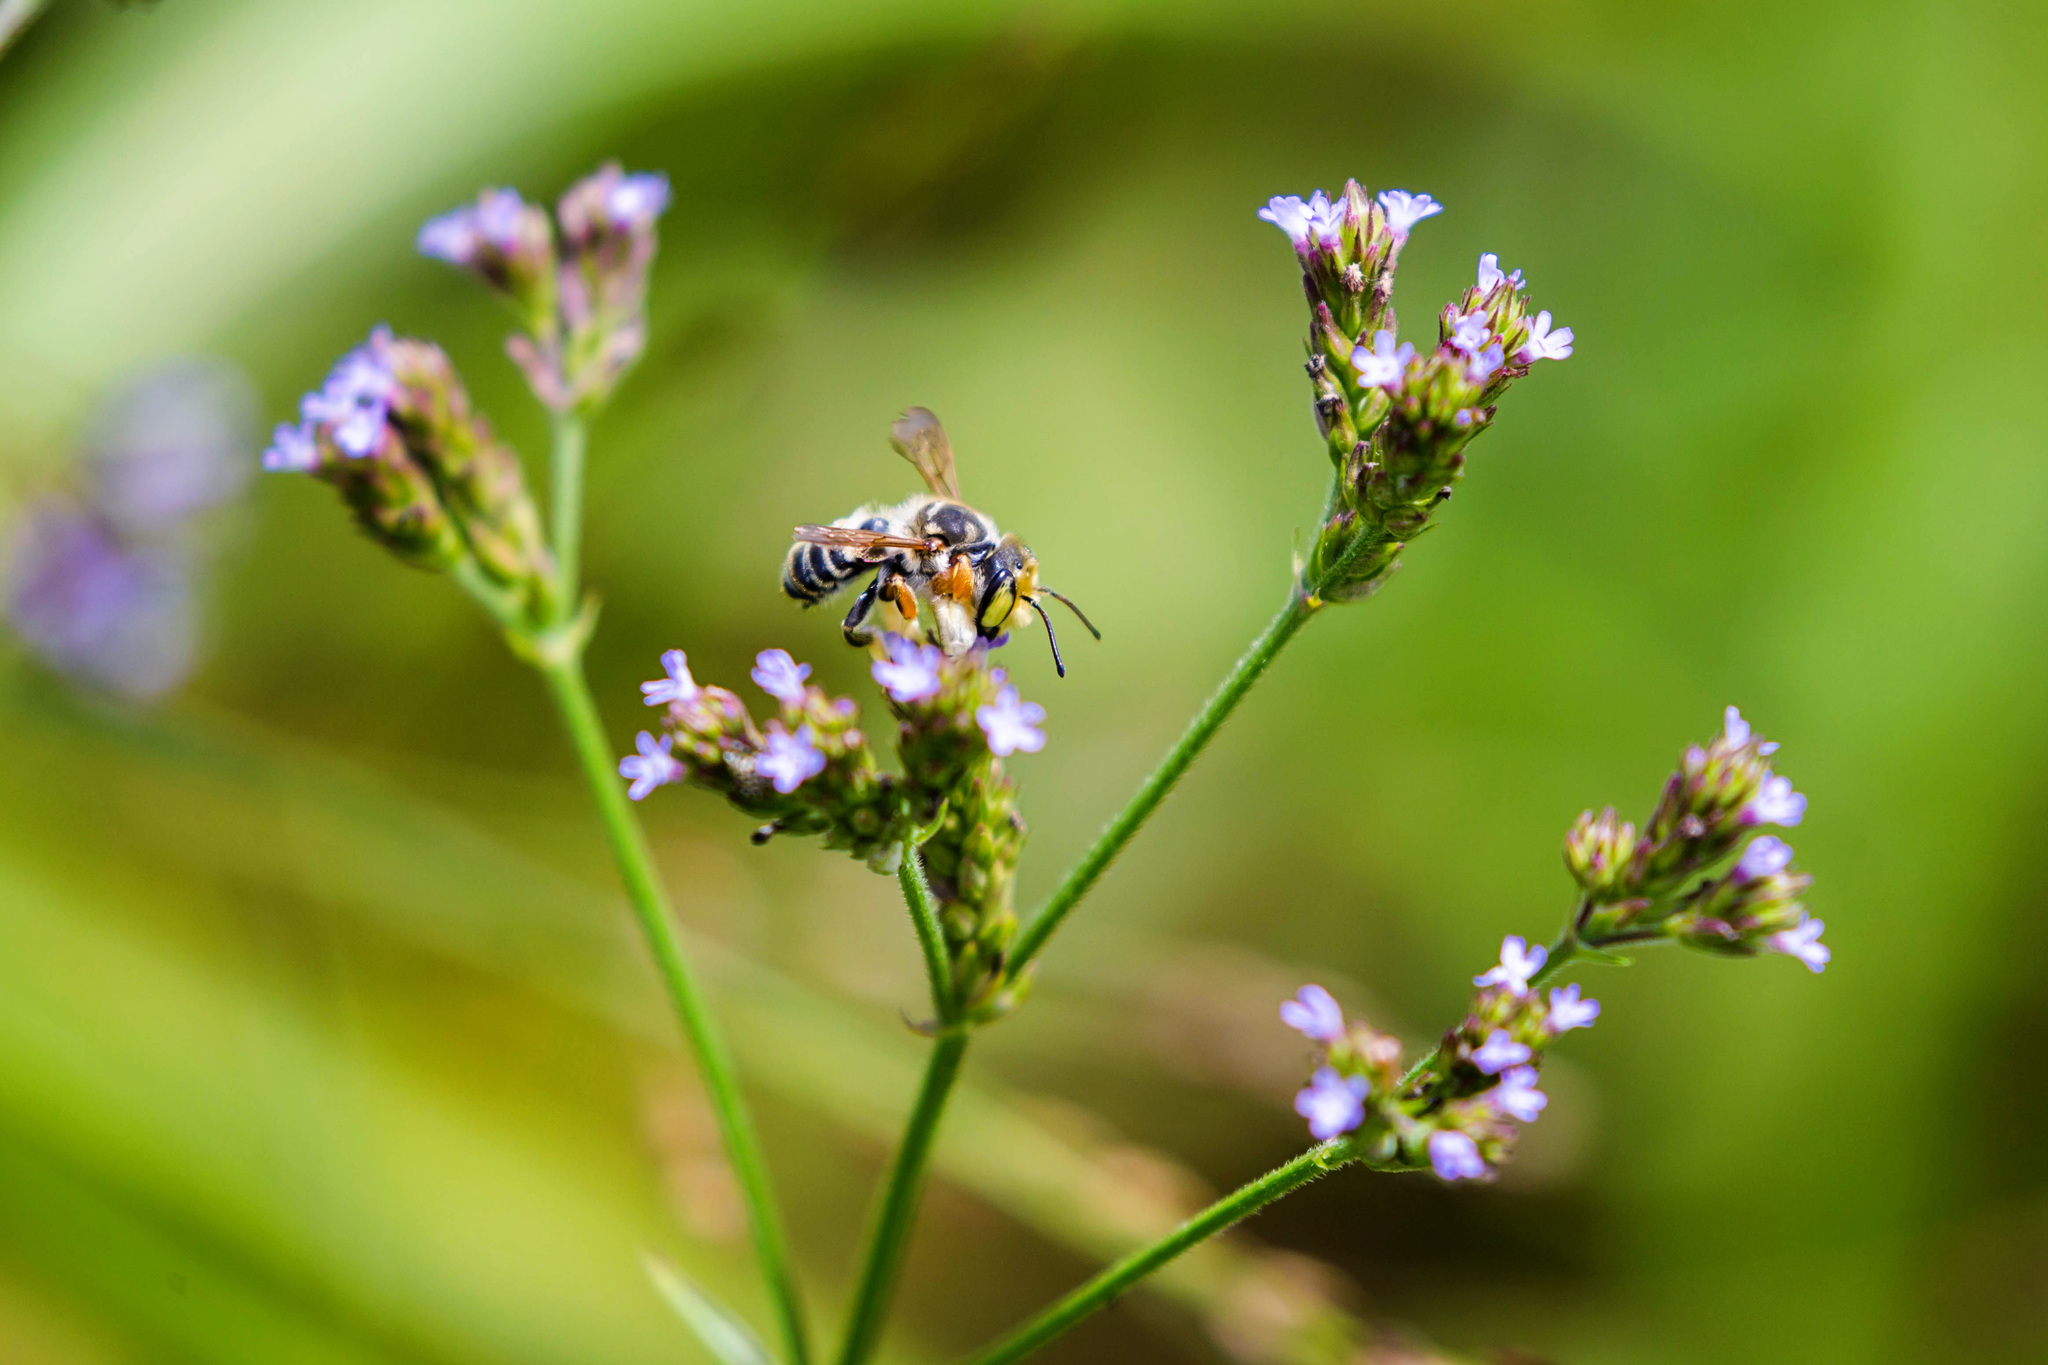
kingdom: Animalia
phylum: Arthropoda
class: Insecta
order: Hymenoptera
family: Megachilidae
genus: Megachile
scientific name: Megachile albitarsis
